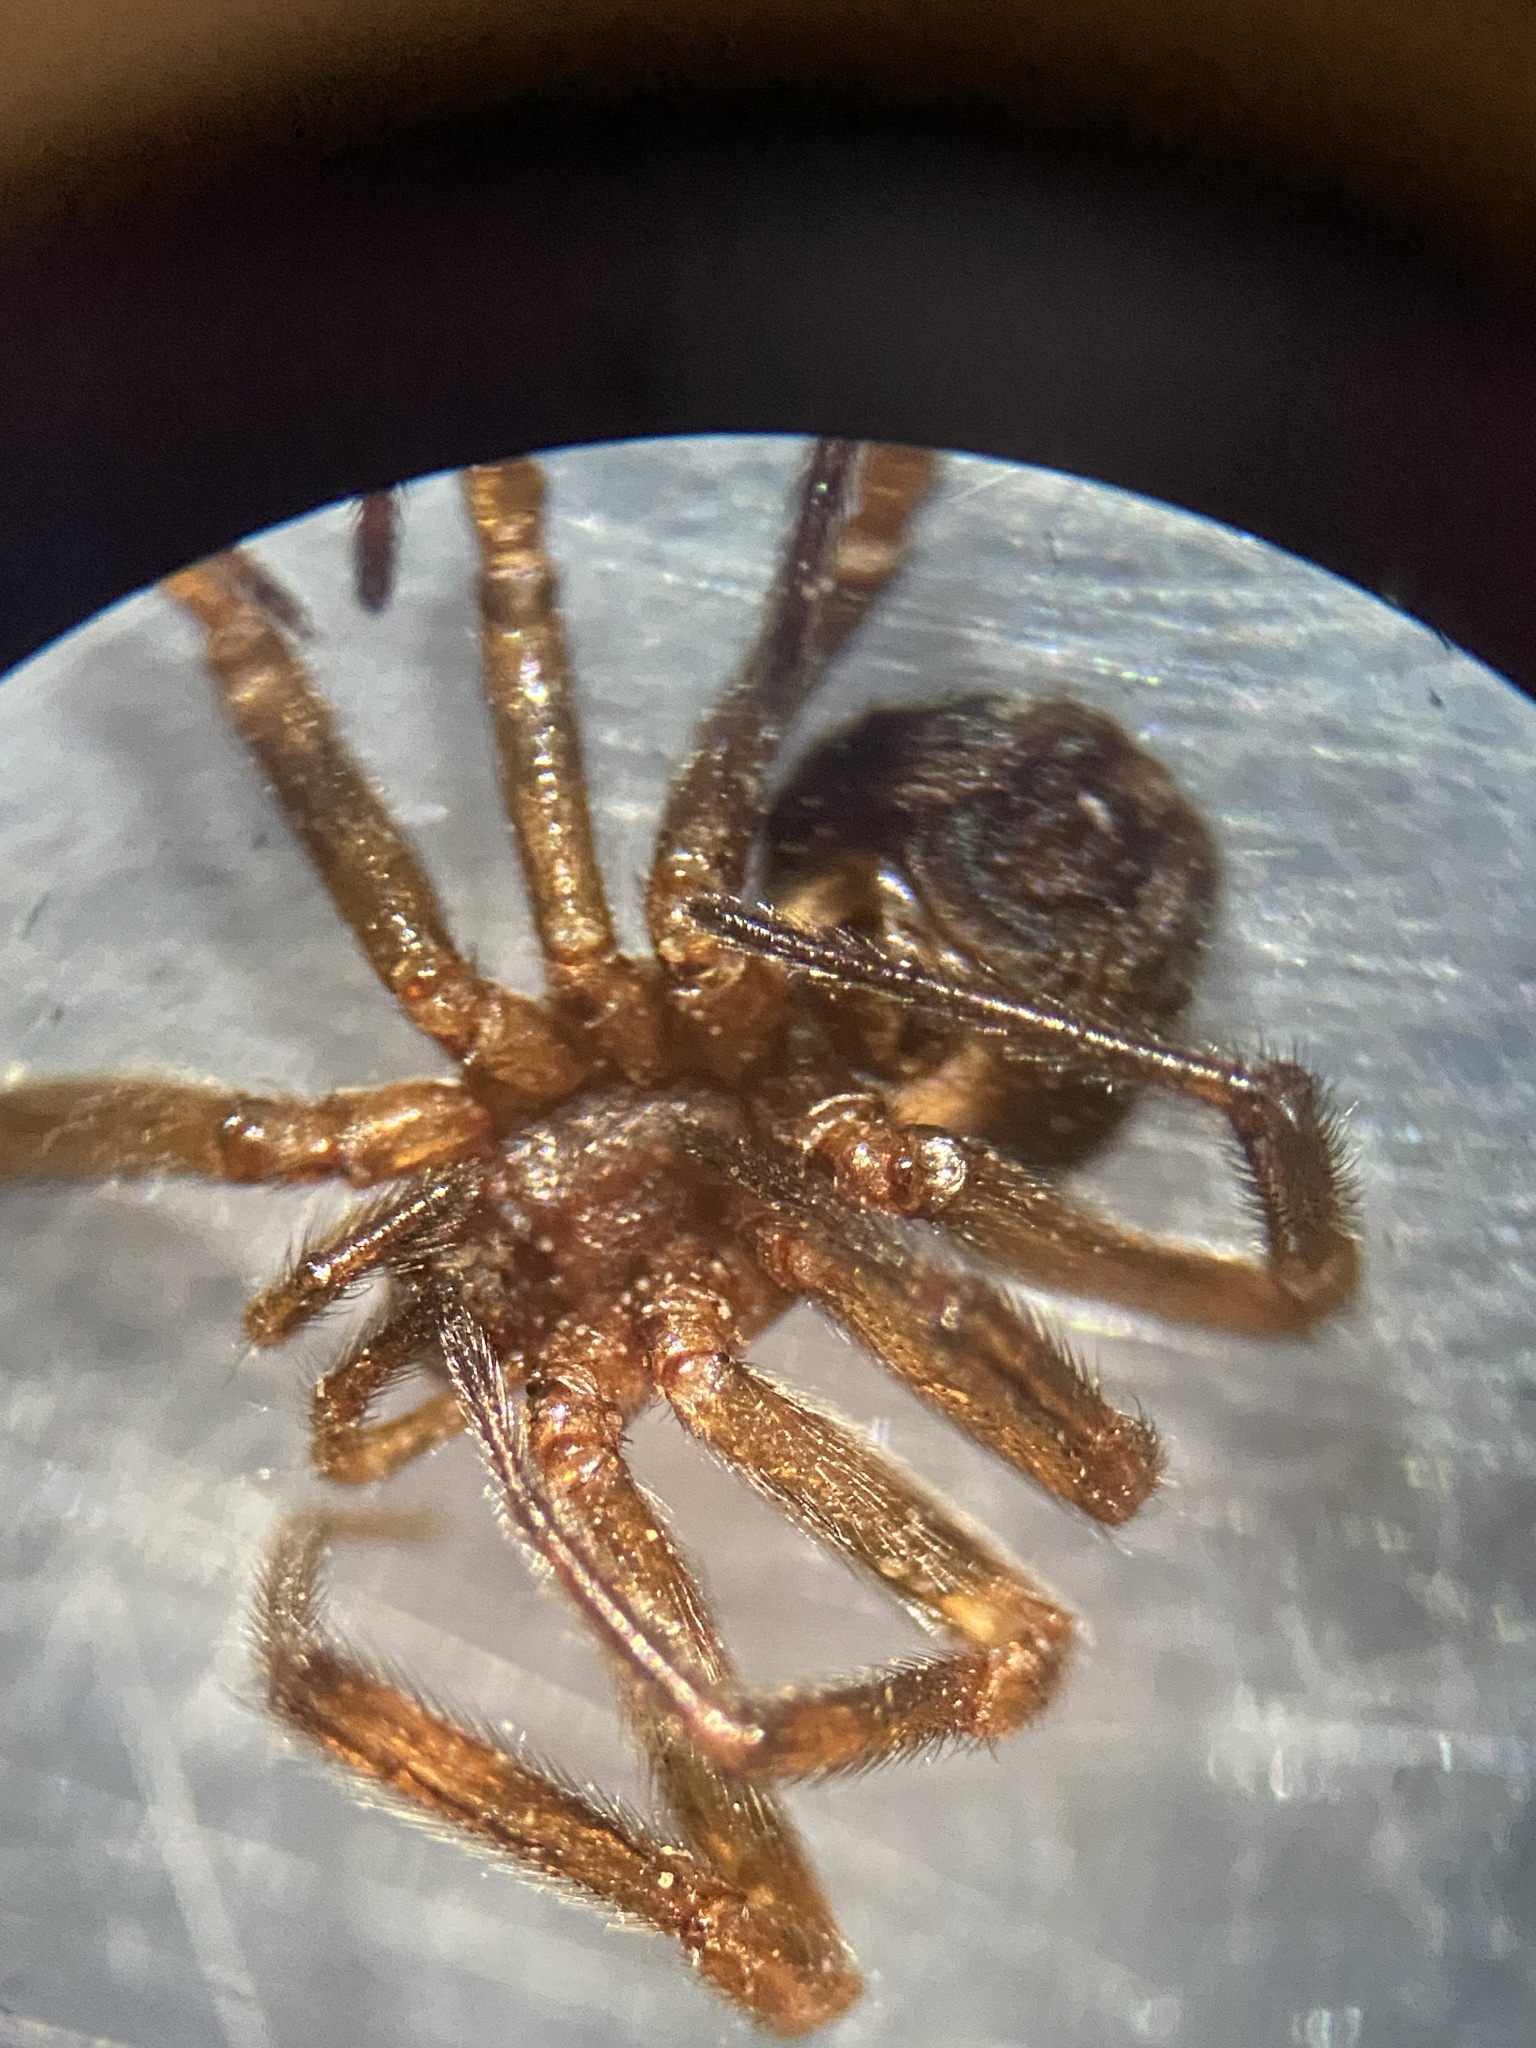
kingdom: Animalia
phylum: Arthropoda
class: Arachnida
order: Araneae
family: Theridiidae
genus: Steatoda
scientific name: Steatoda hespera
